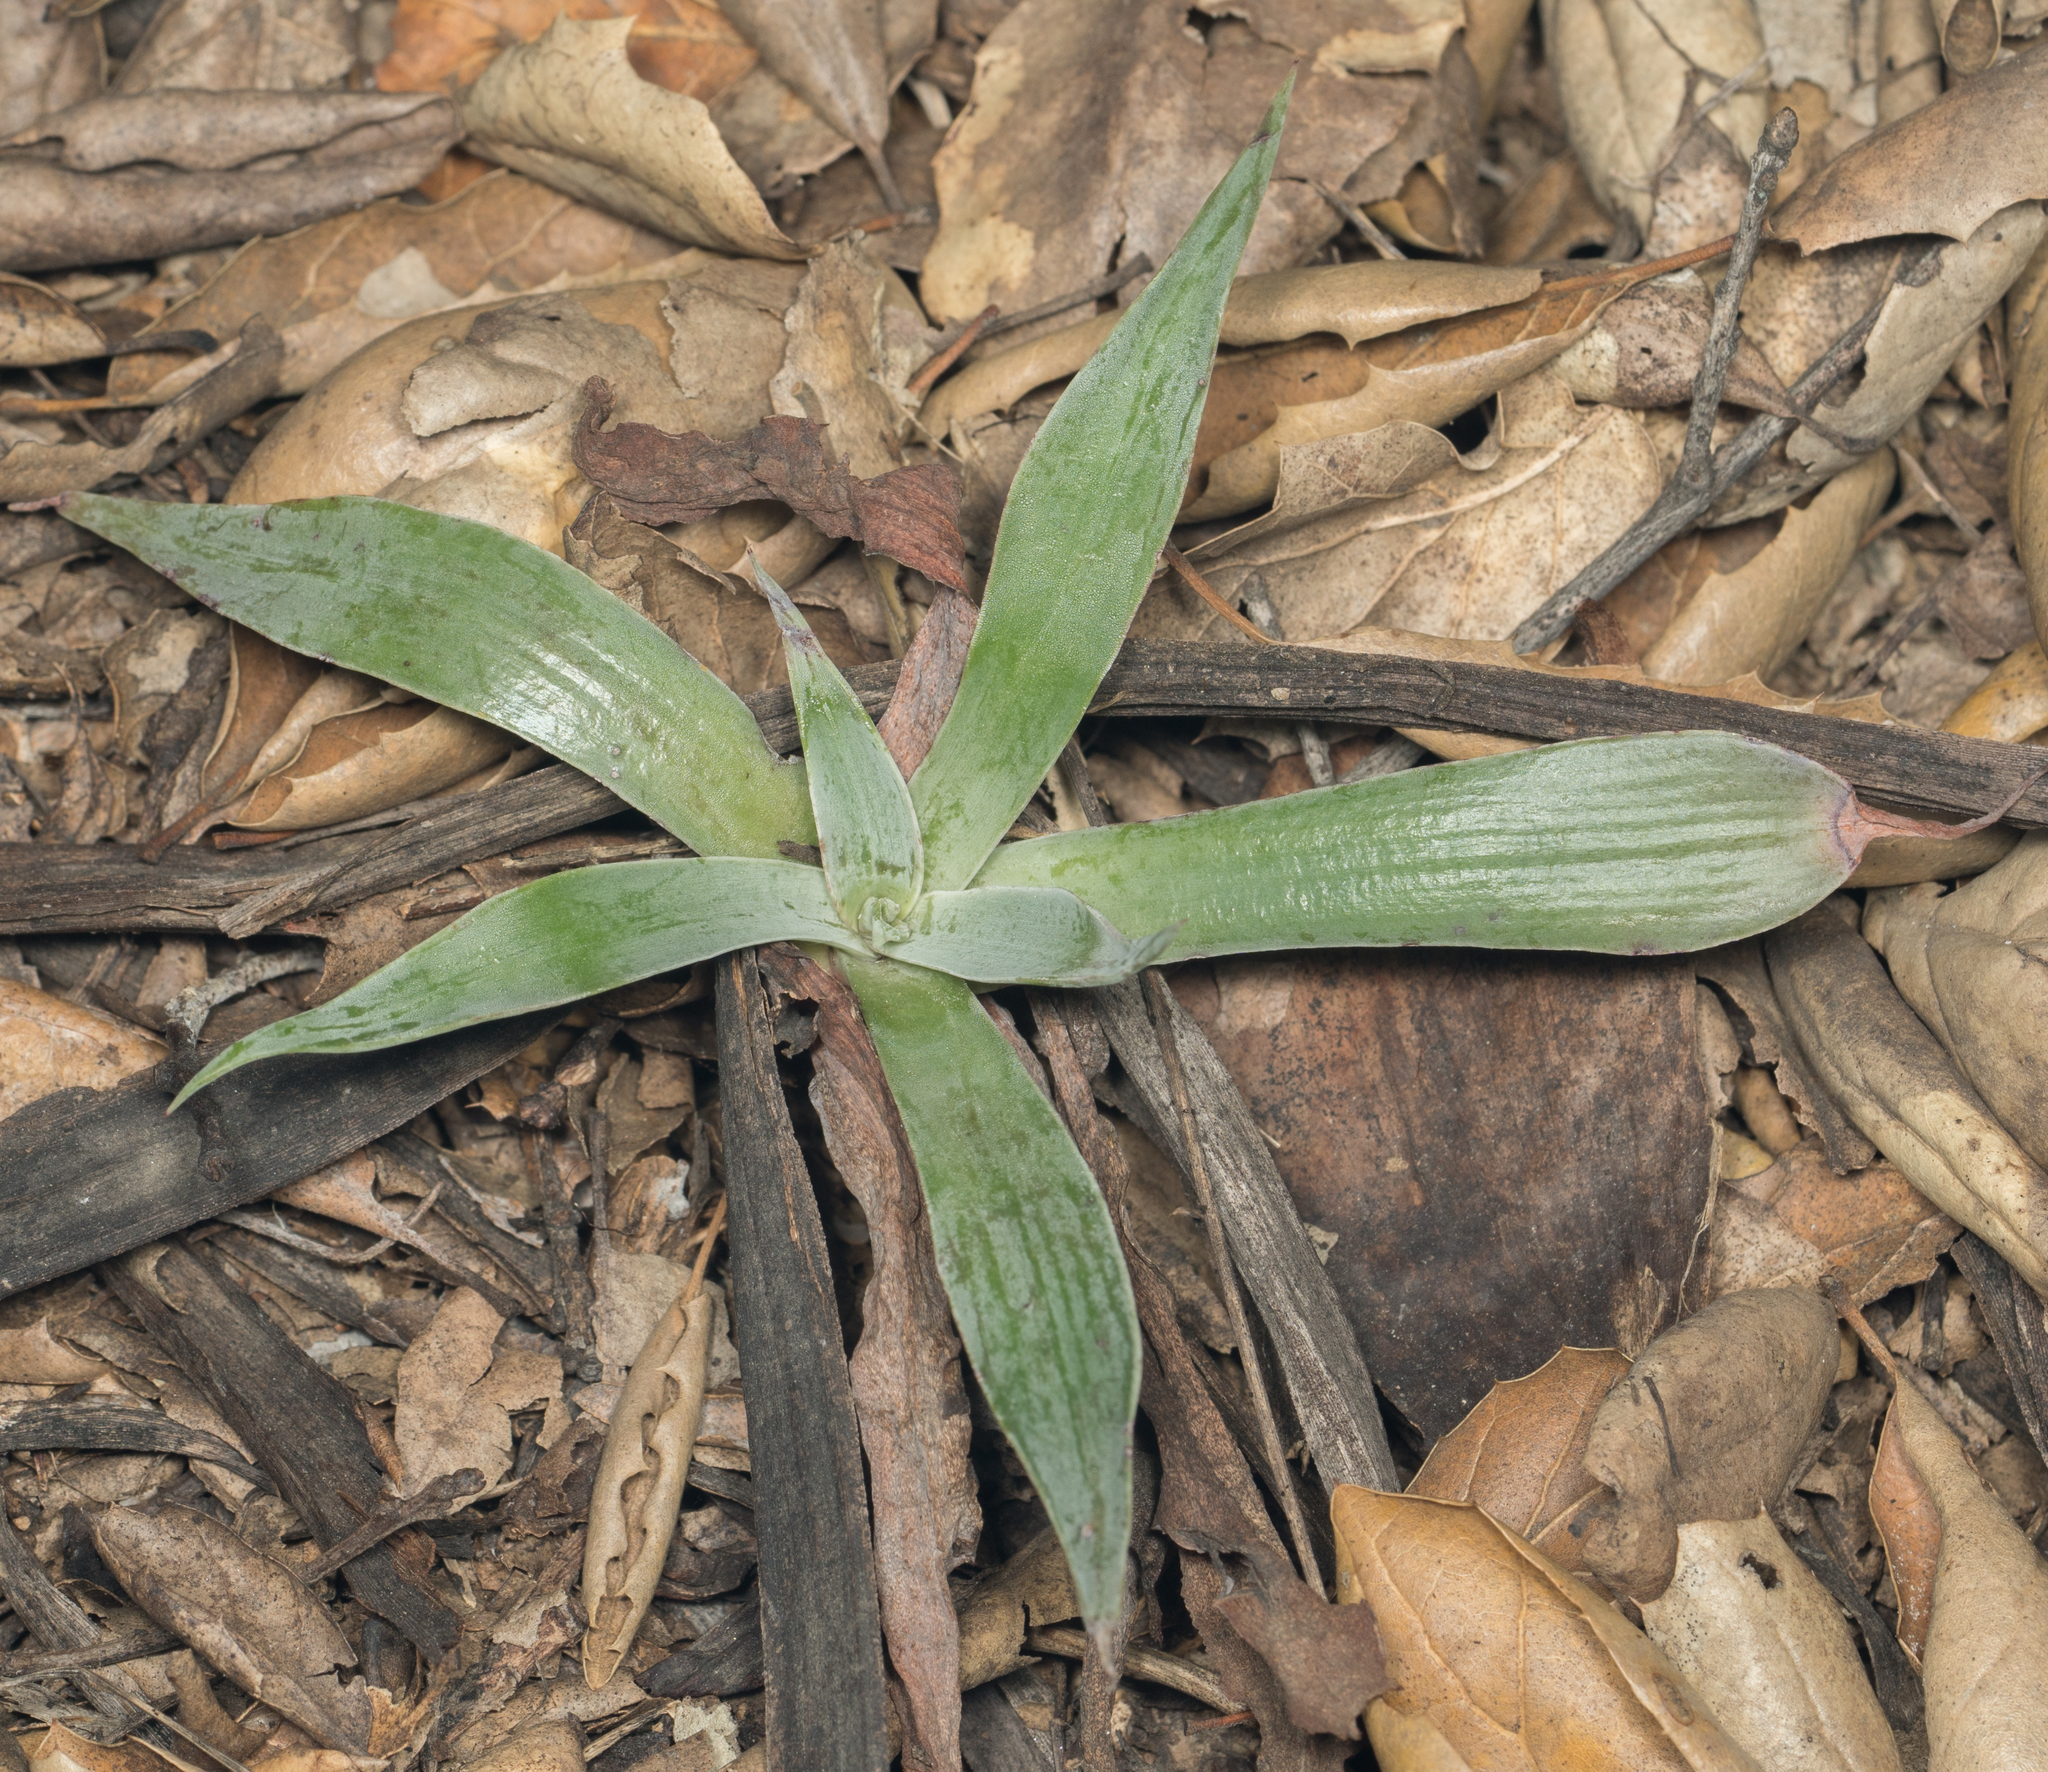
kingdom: Plantae
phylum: Tracheophyta
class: Magnoliopsida
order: Saxifragales
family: Crassulaceae
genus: Dudleya
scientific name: Dudleya lanceolata
